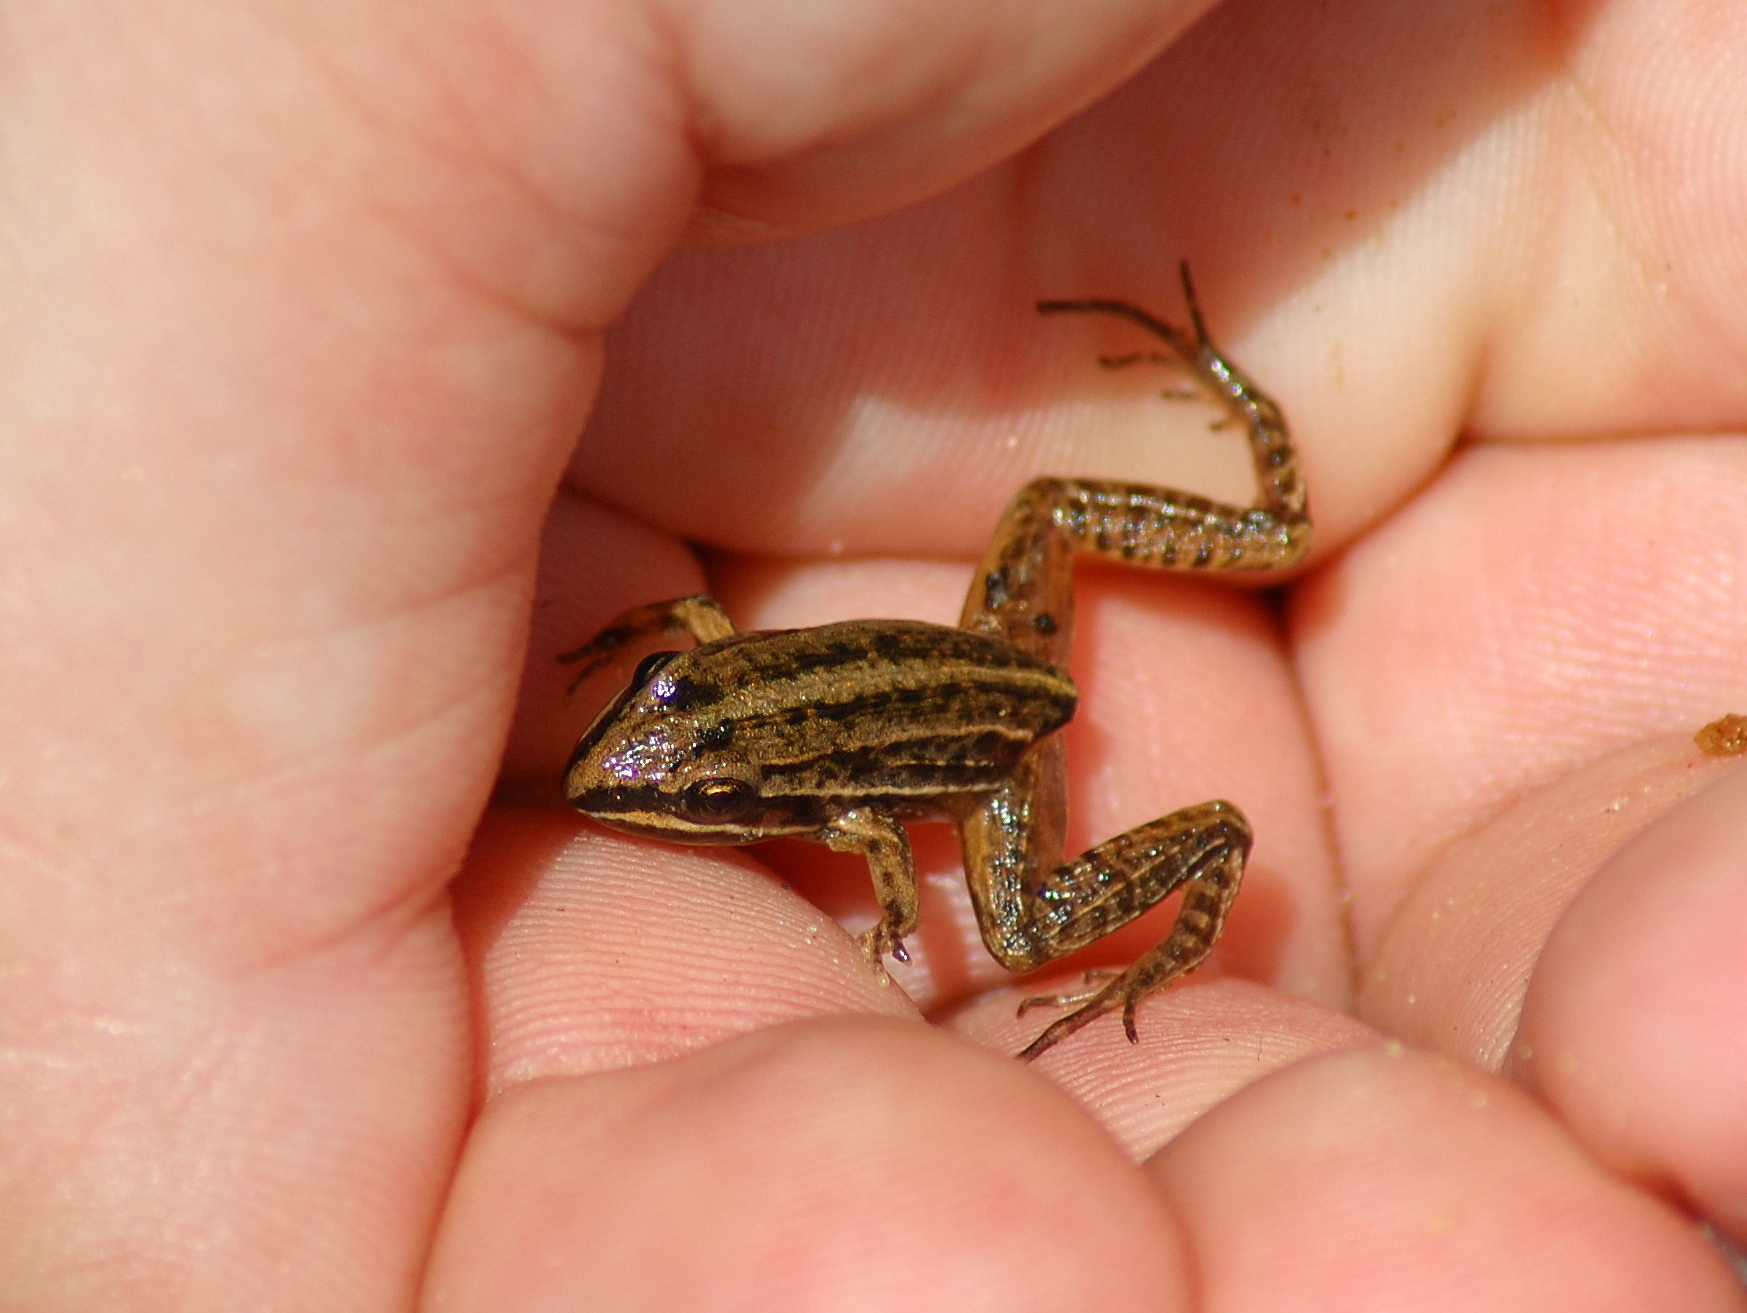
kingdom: Animalia
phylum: Chordata
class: Amphibia
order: Anura
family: Leptodactylidae
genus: Leptodactylus
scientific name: Leptodactylus gracilis
